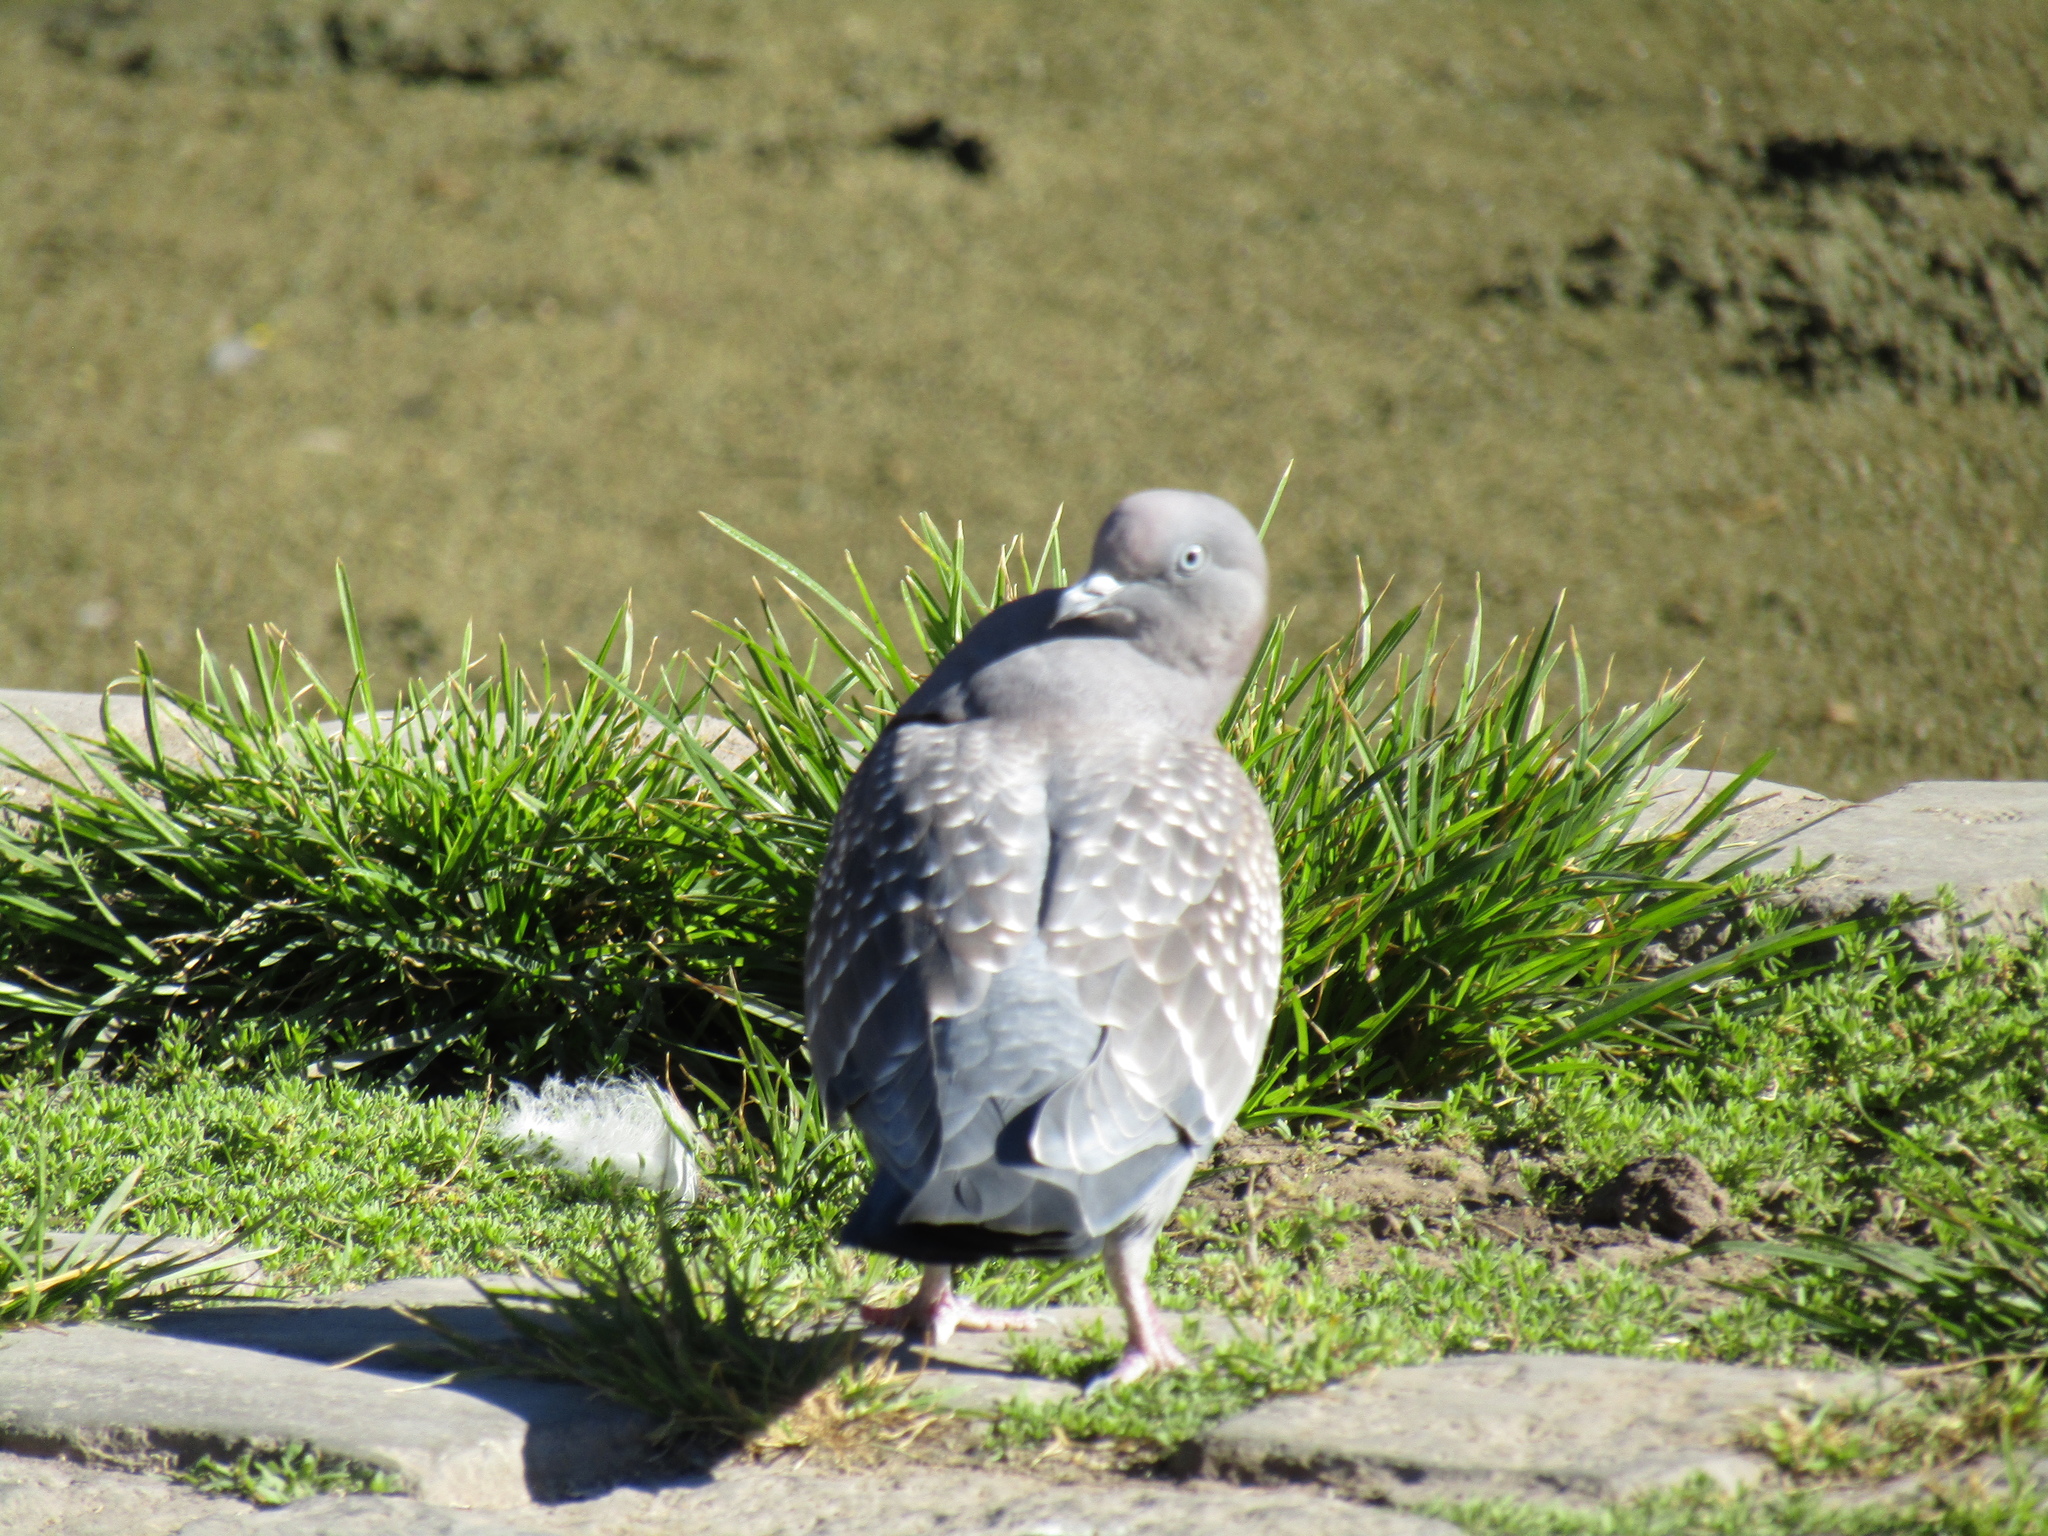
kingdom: Animalia
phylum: Chordata
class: Aves
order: Columbiformes
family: Columbidae
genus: Patagioenas
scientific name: Patagioenas maculosa
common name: Spot-winged pigeon
